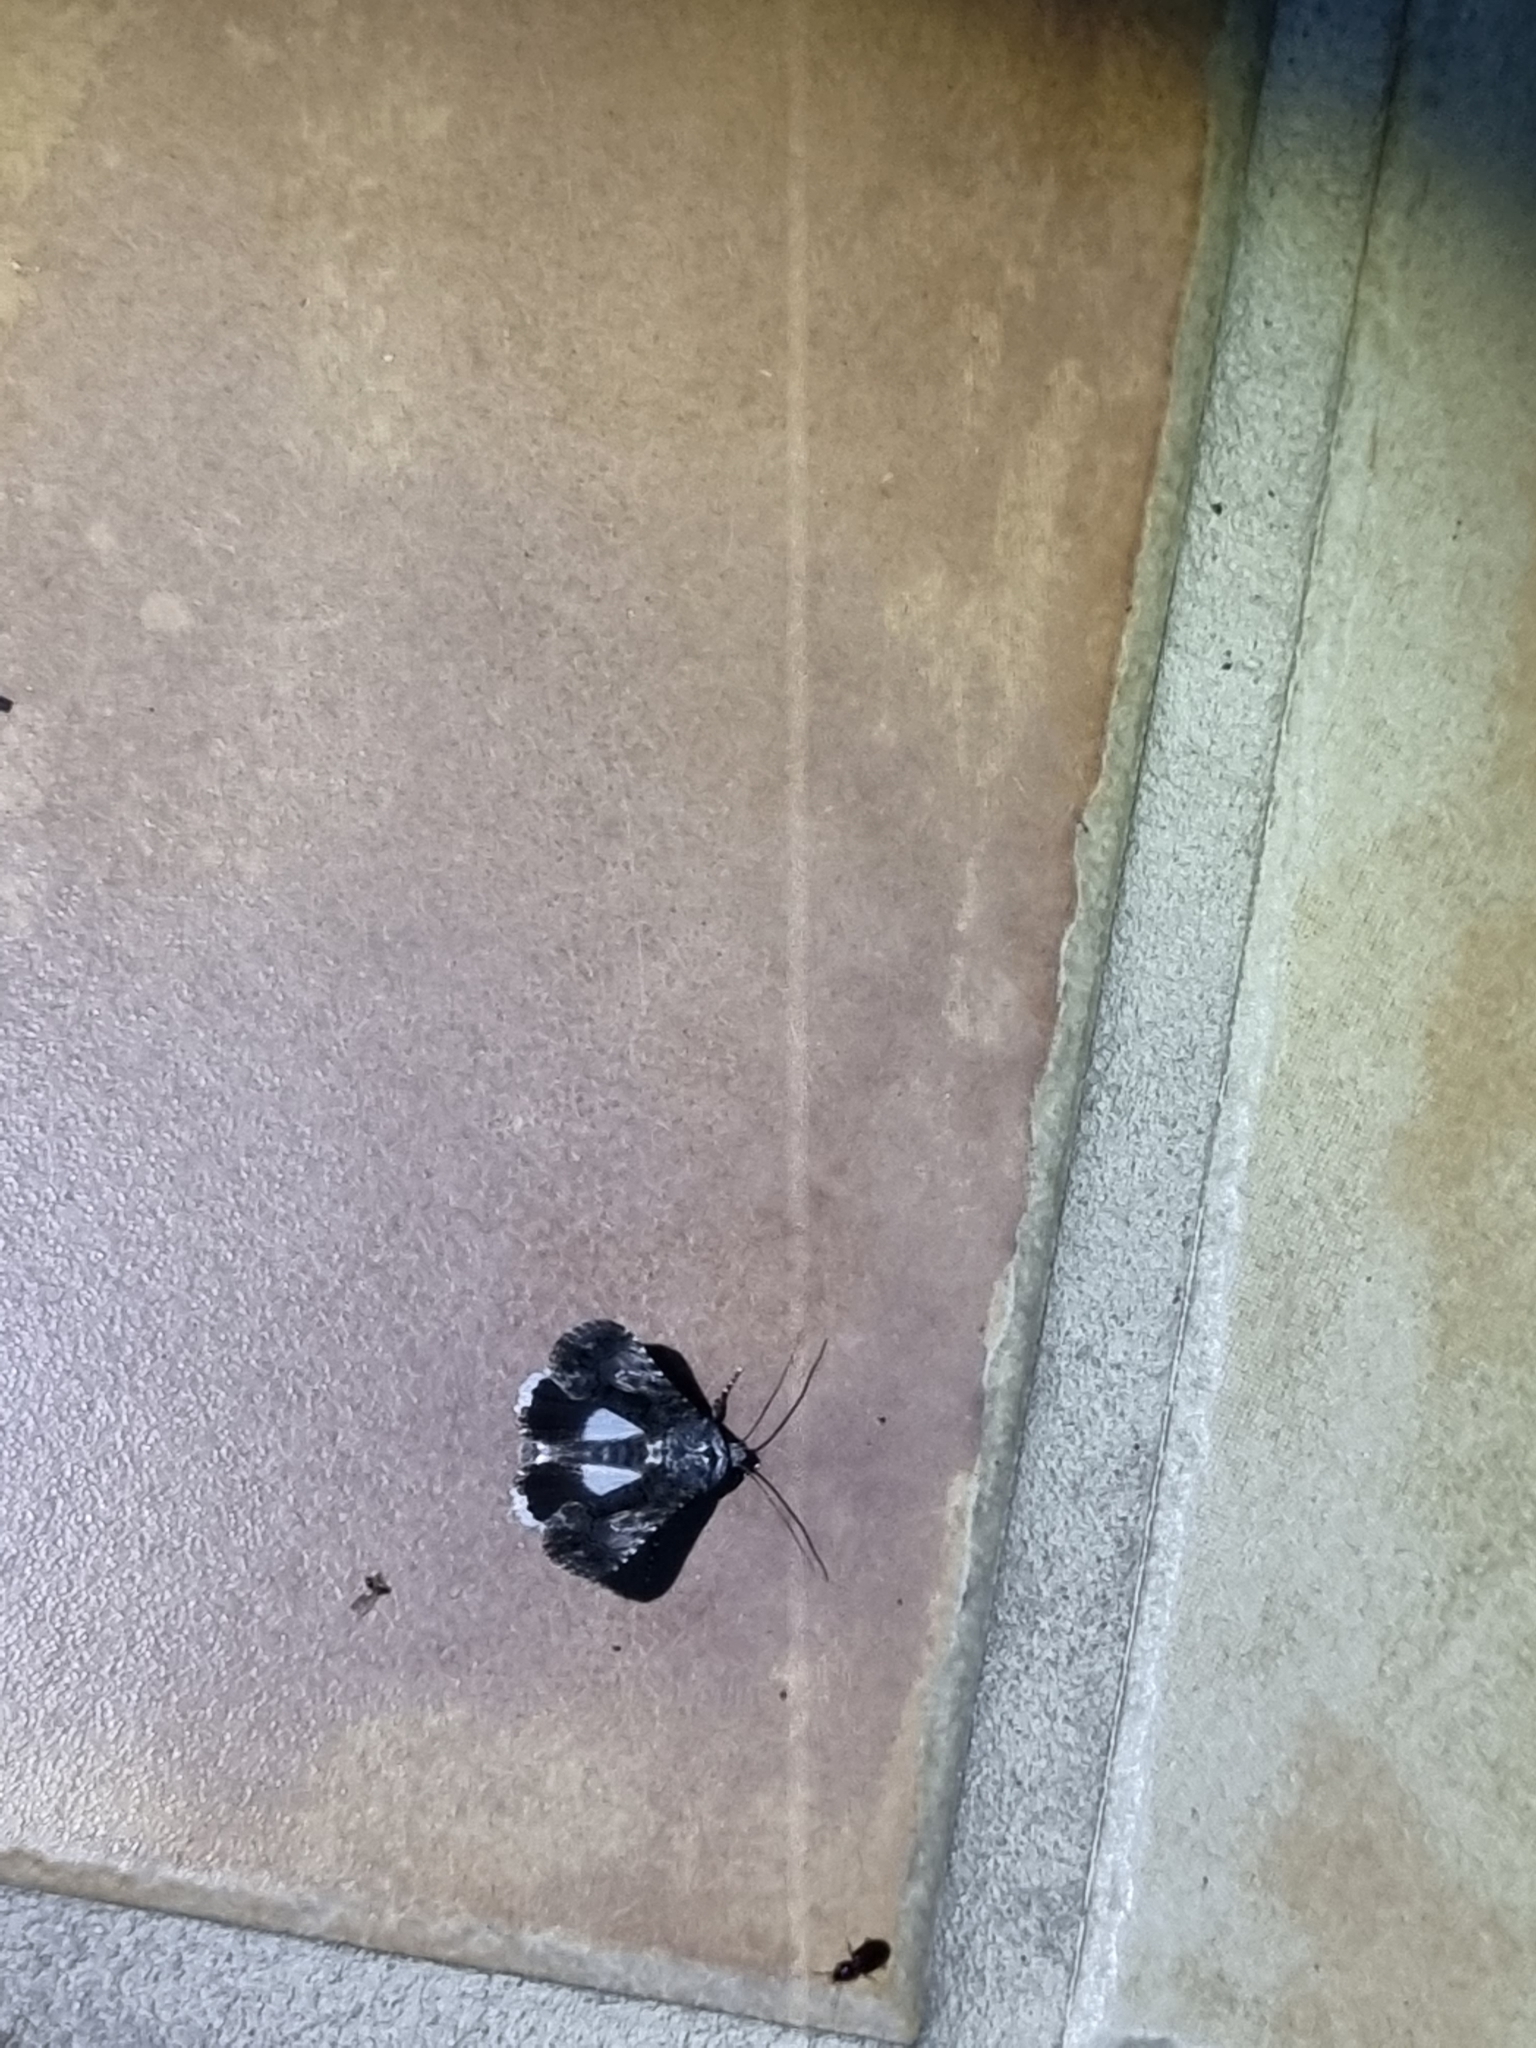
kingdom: Animalia
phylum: Arthropoda
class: Insecta
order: Lepidoptera
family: Noctuidae
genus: Aedia
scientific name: Aedia leucomelas
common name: Sorcerer
